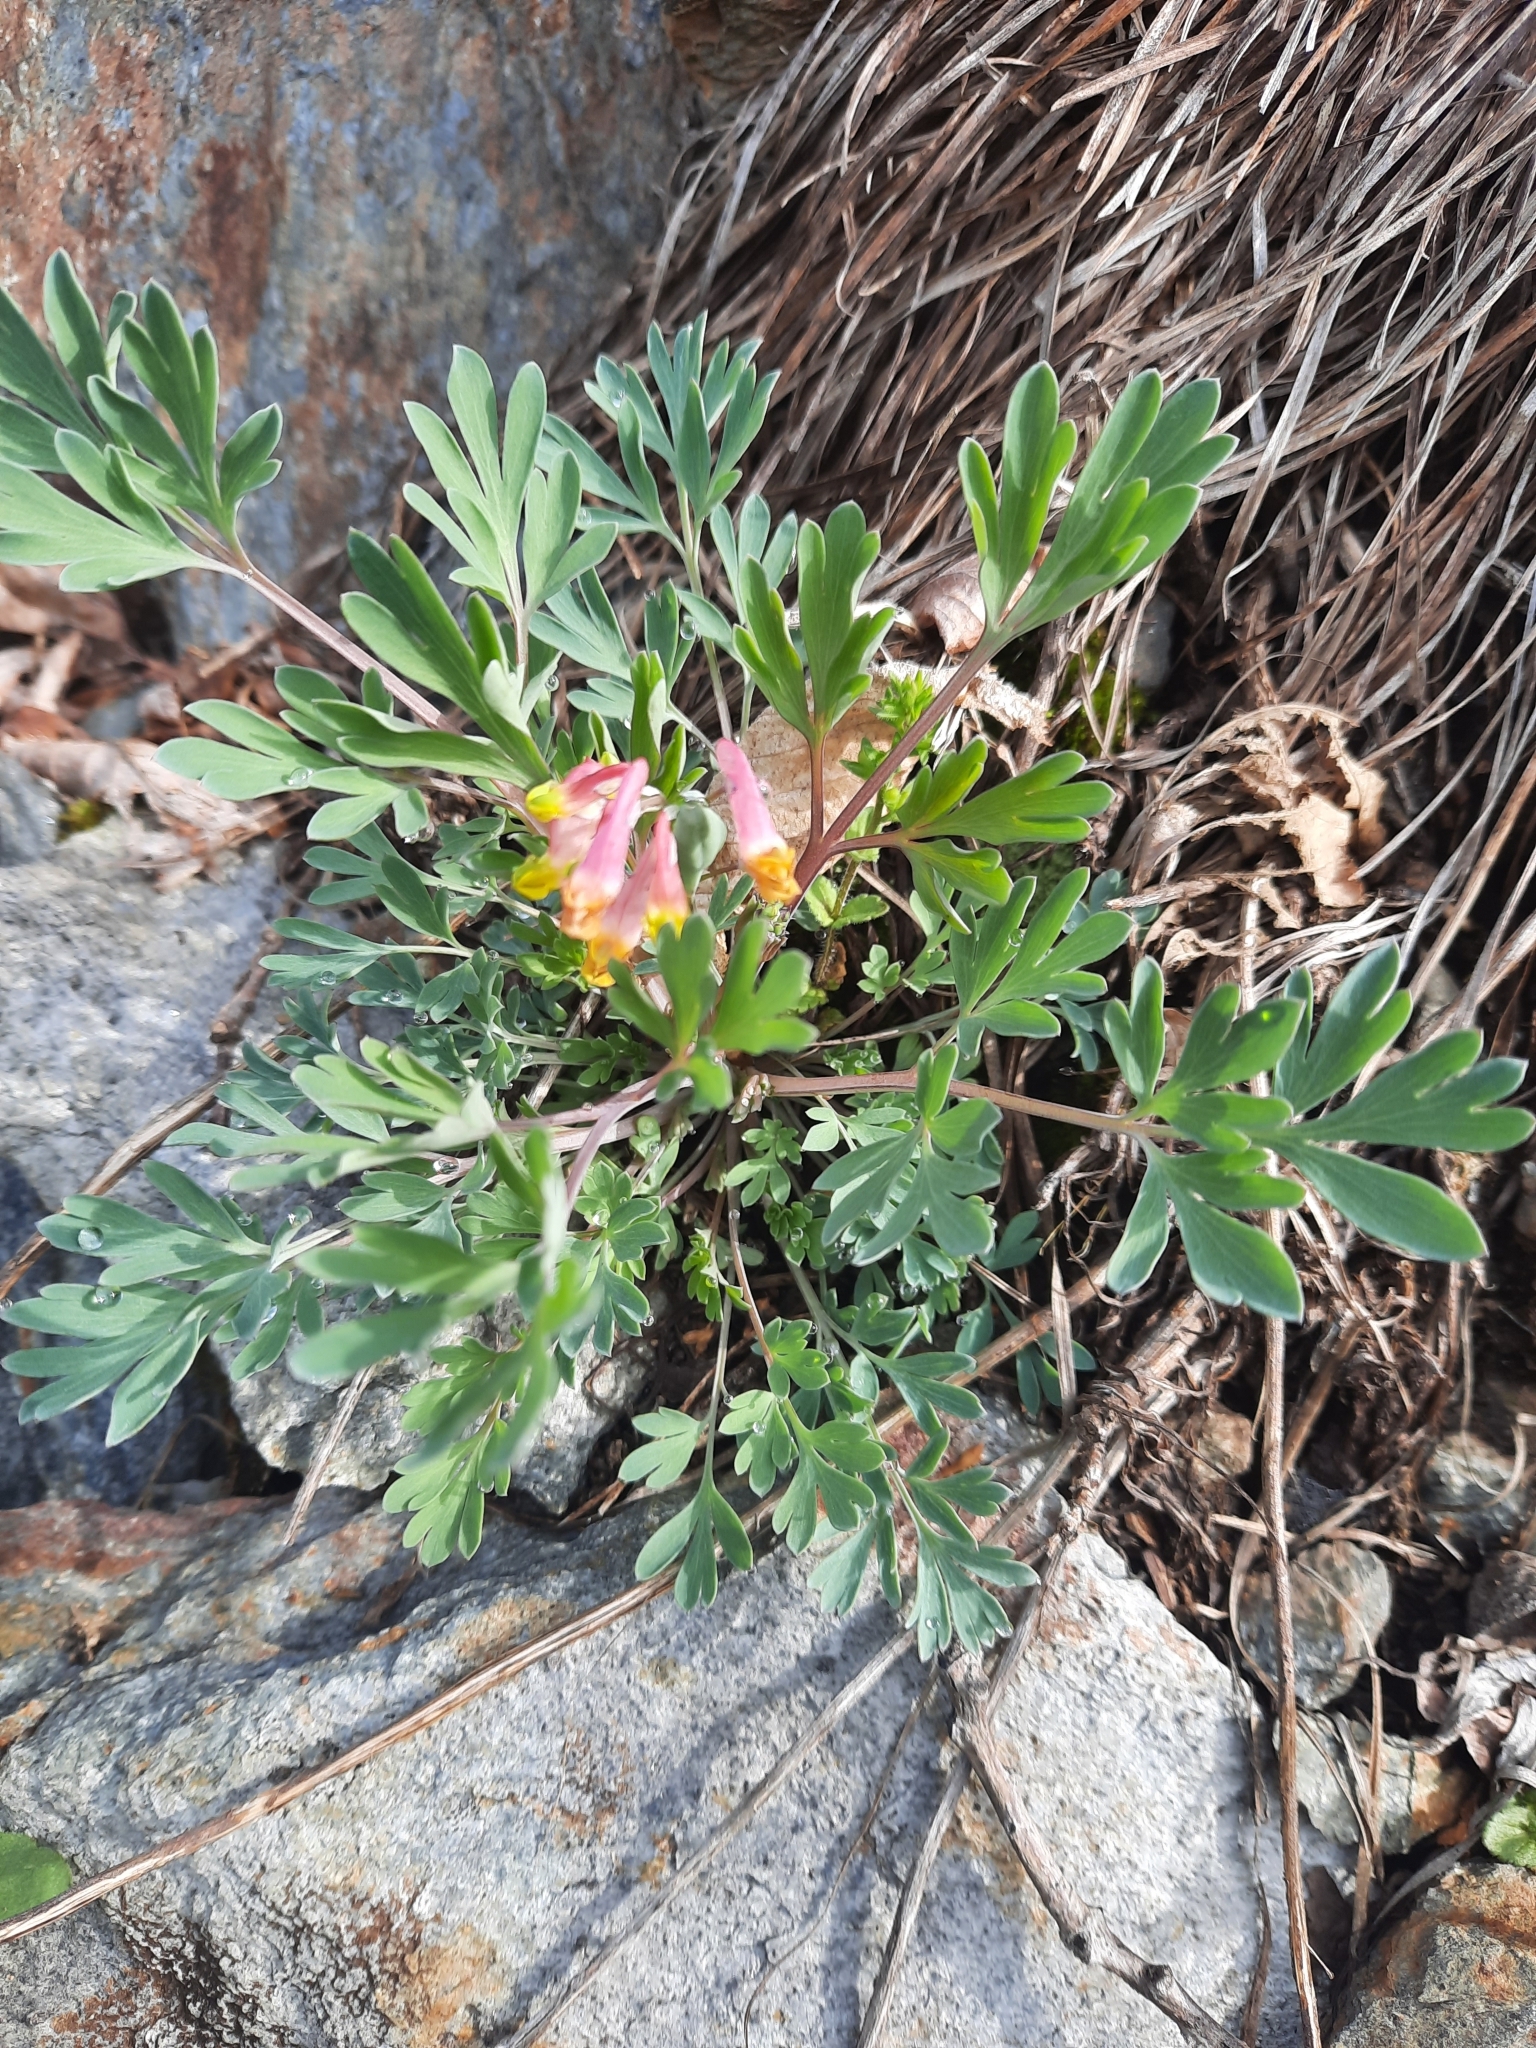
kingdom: Plantae
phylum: Tracheophyta
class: Magnoliopsida
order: Ranunculales
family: Papaveraceae
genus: Capnoides
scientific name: Capnoides sempervirens
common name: Rock harlequin
